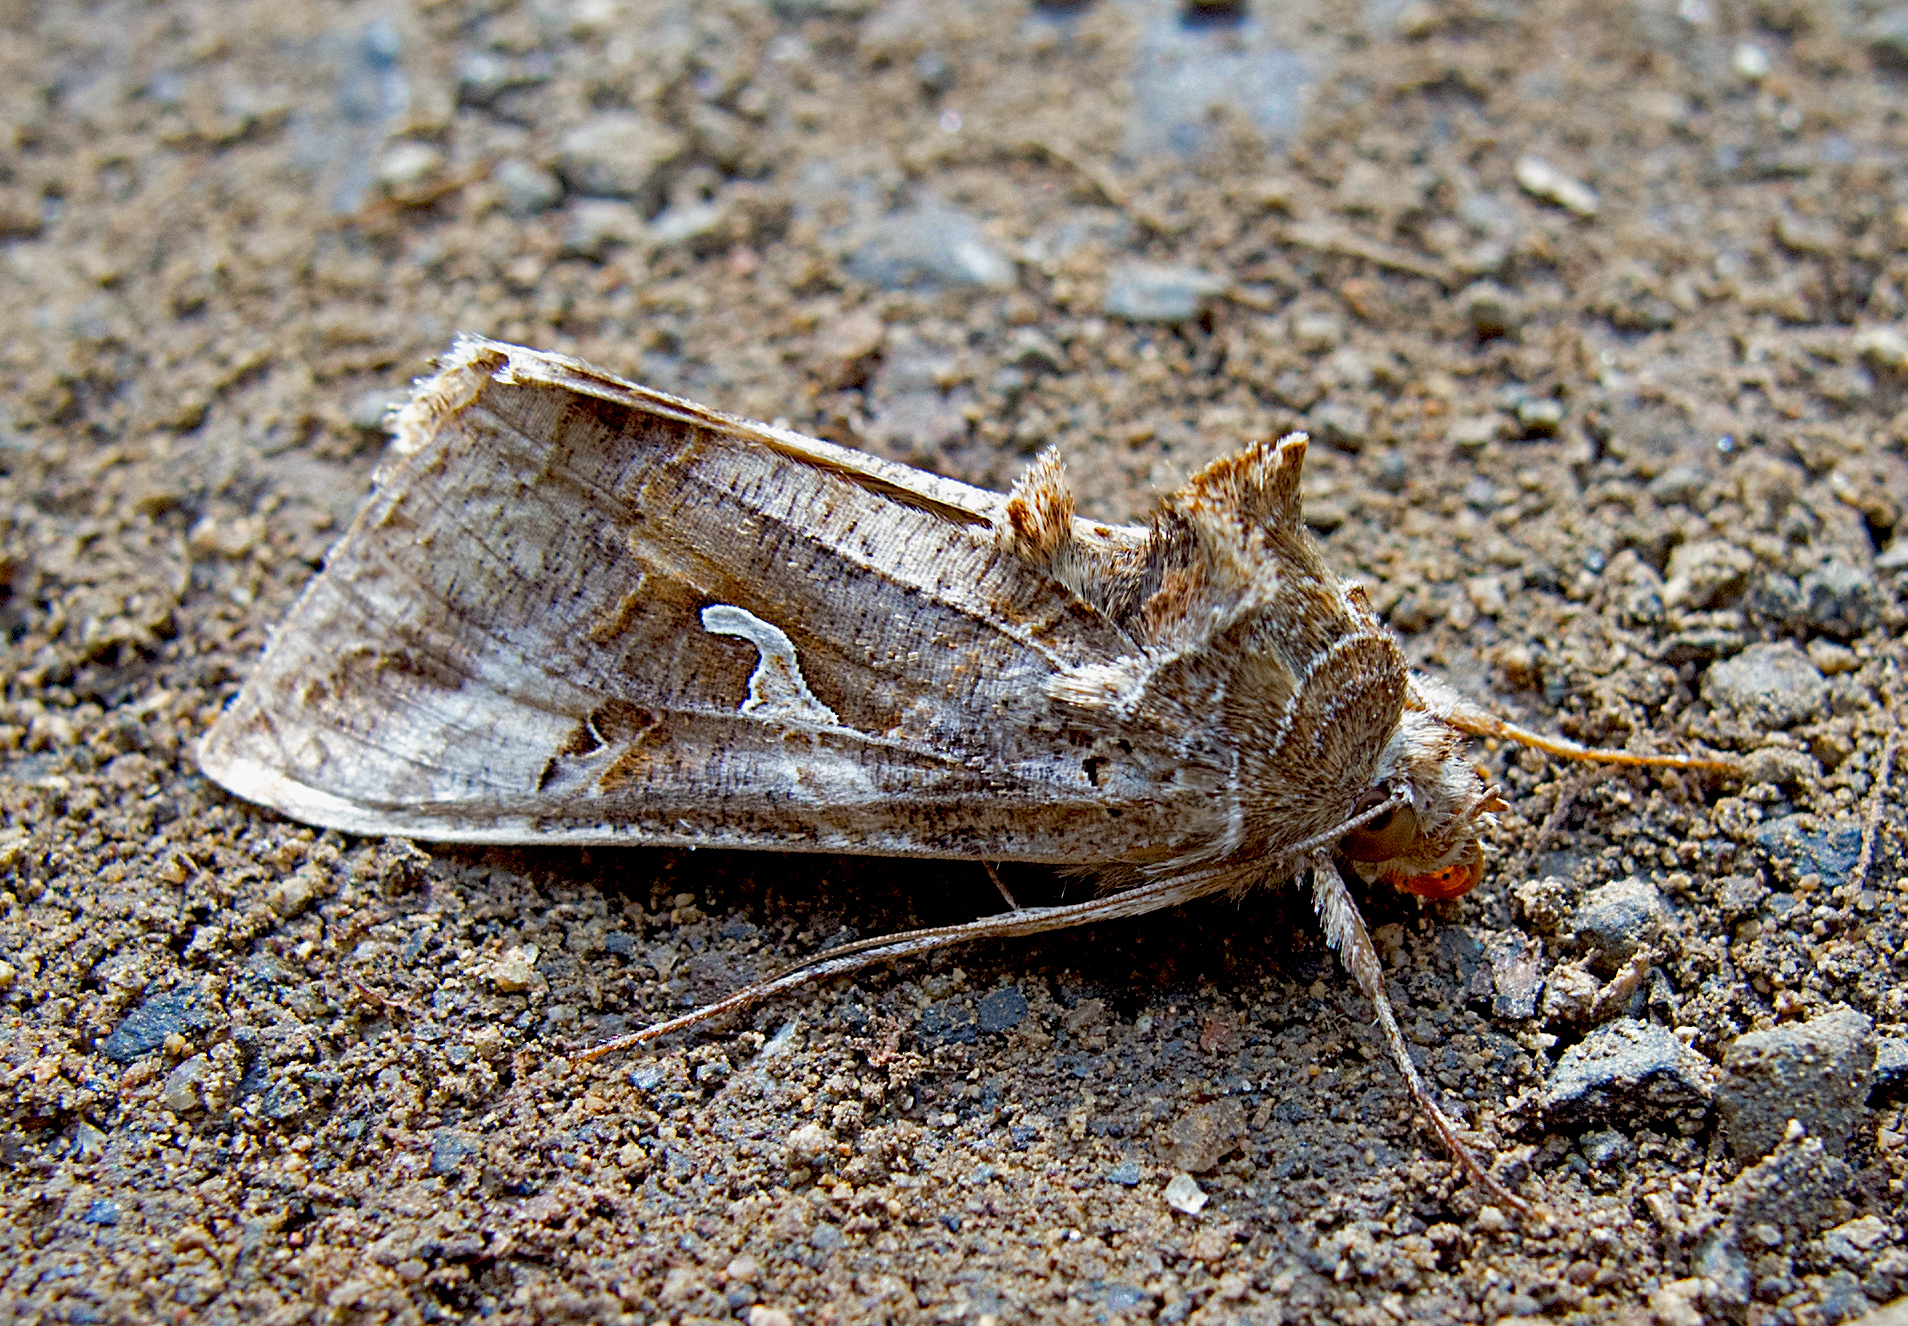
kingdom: Animalia
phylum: Arthropoda
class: Insecta
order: Lepidoptera
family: Noctuidae
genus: Autographa
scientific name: Autographa gamma
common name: Silver y
